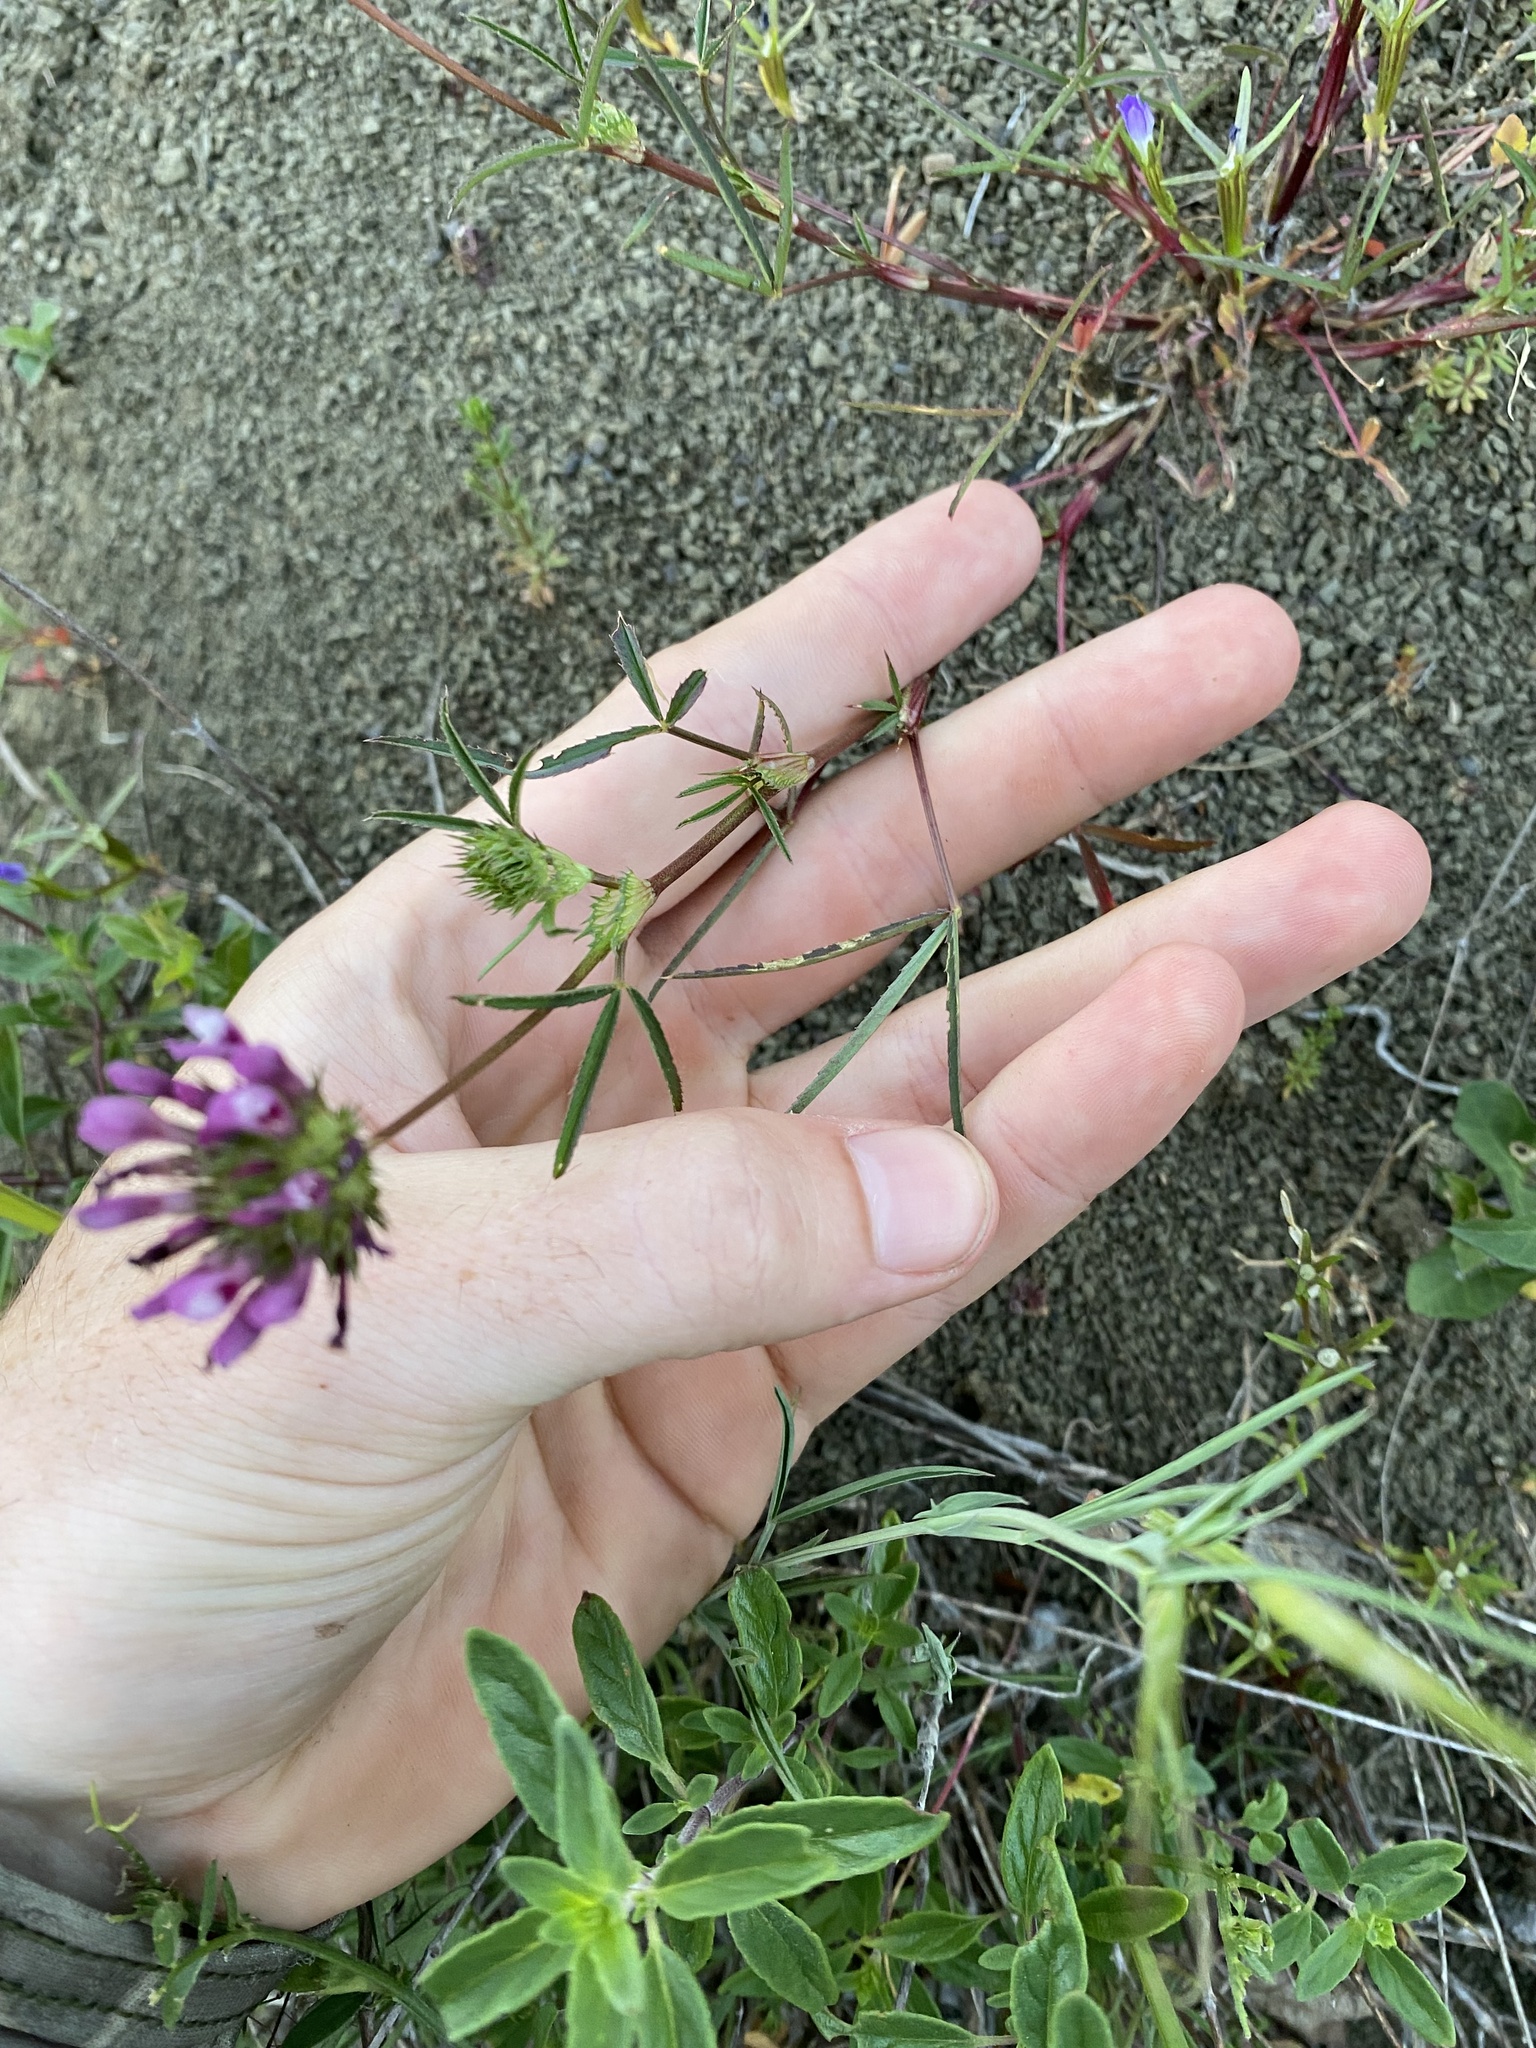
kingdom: Plantae
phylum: Tracheophyta
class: Magnoliopsida
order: Fabales
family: Fabaceae
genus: Trifolium
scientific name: Trifolium willdenovii
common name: Tomcat clover
